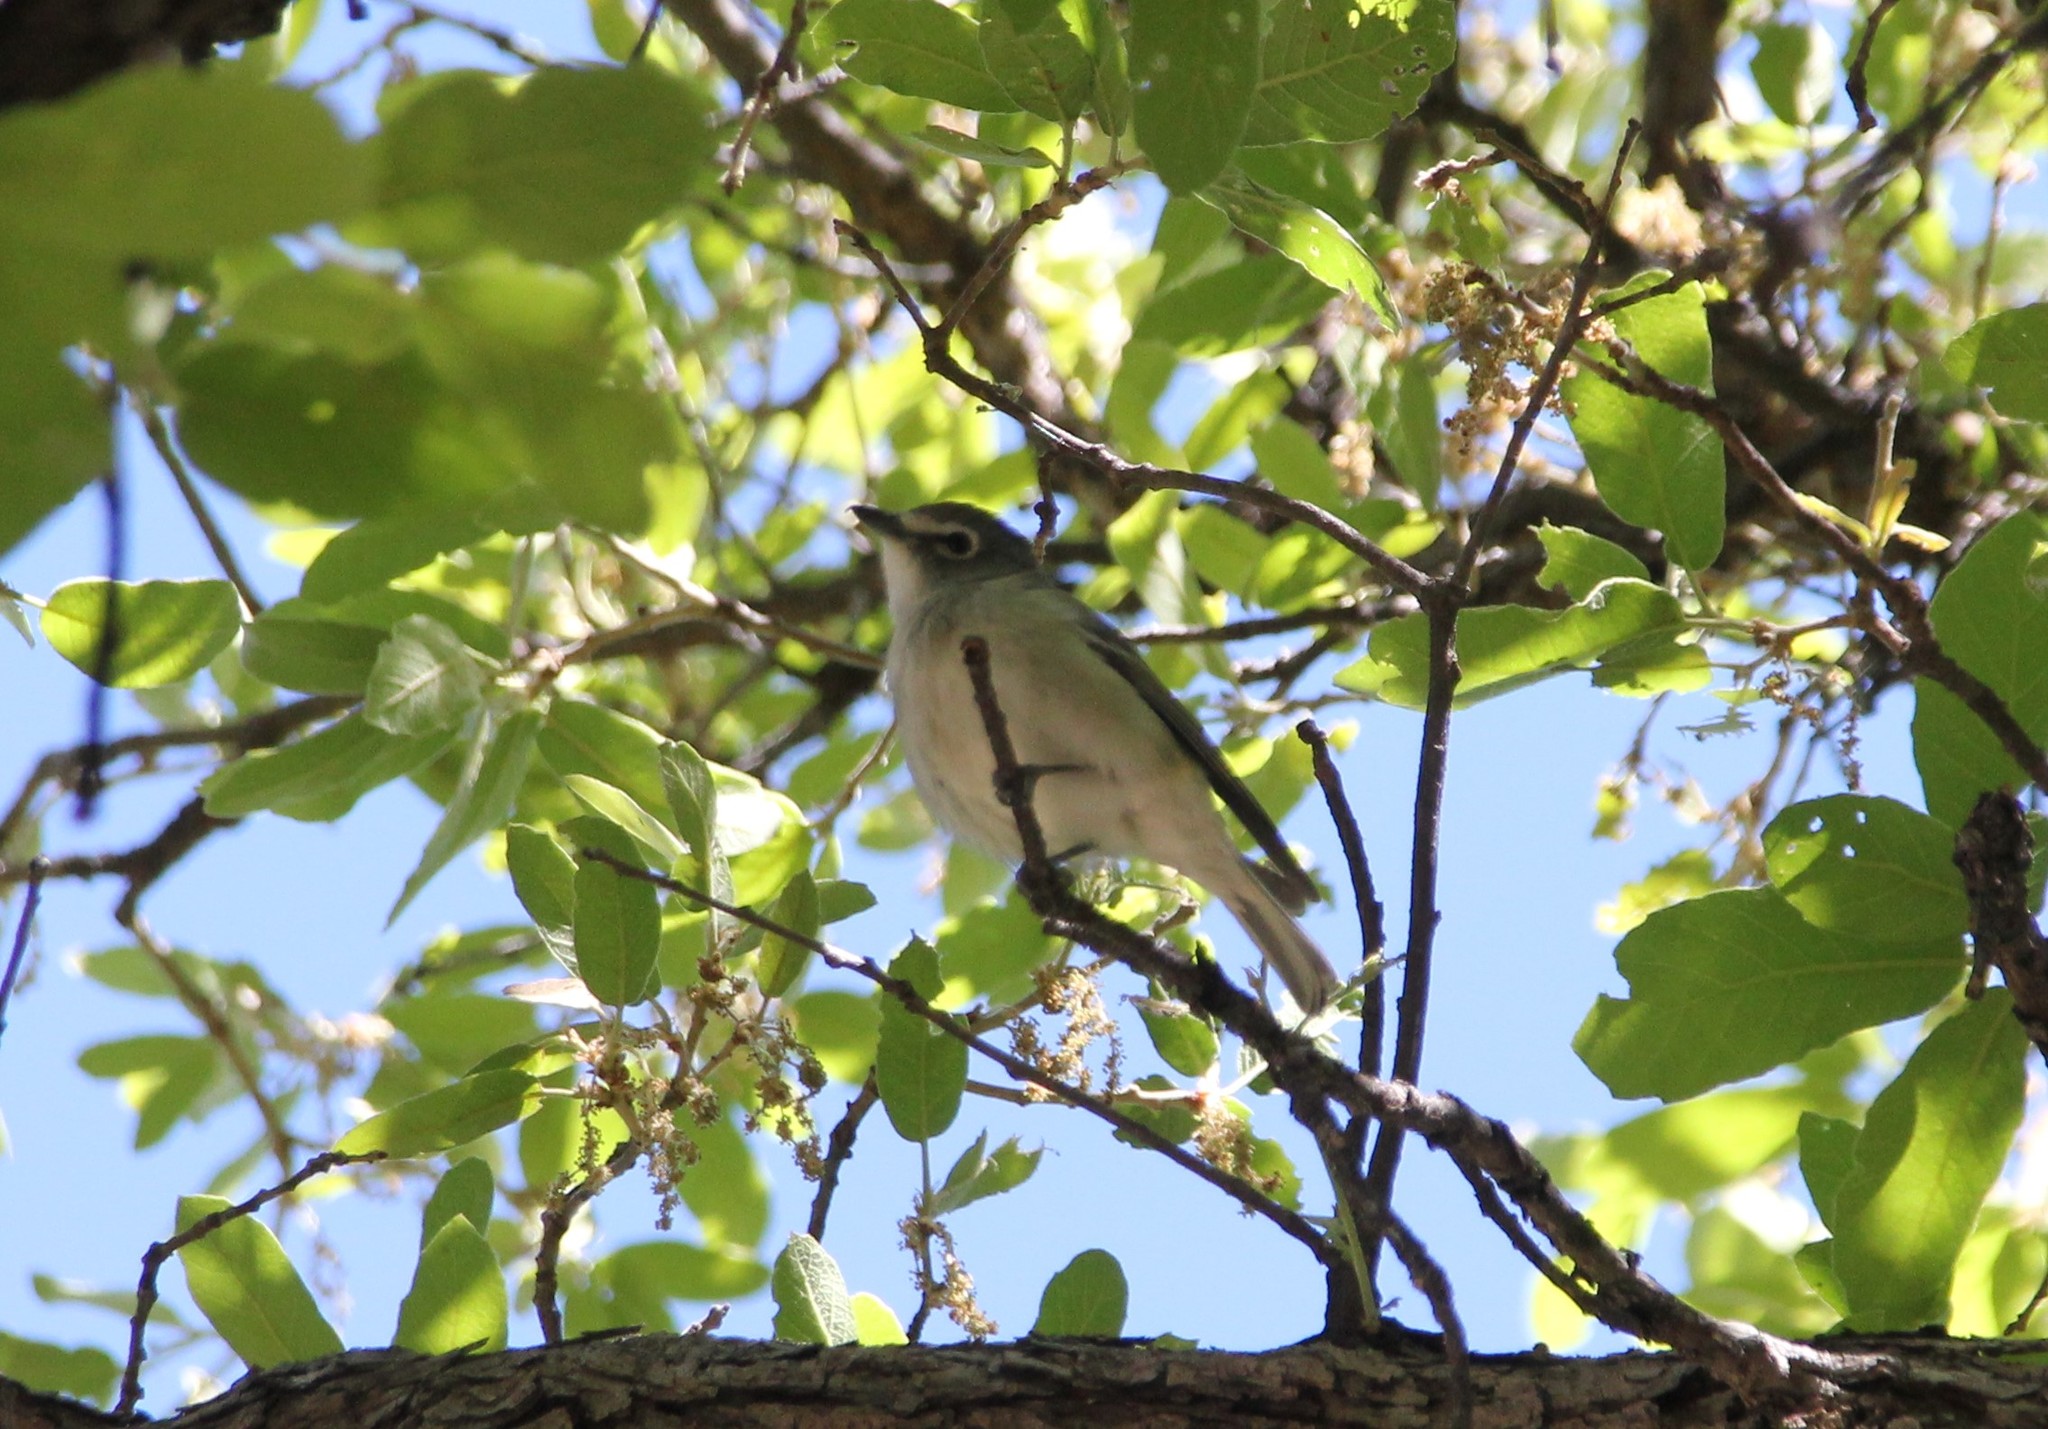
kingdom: Animalia
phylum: Chordata
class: Aves
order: Passeriformes
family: Vireonidae
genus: Vireo
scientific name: Vireo plumbeus
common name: Plumbeous vireo
